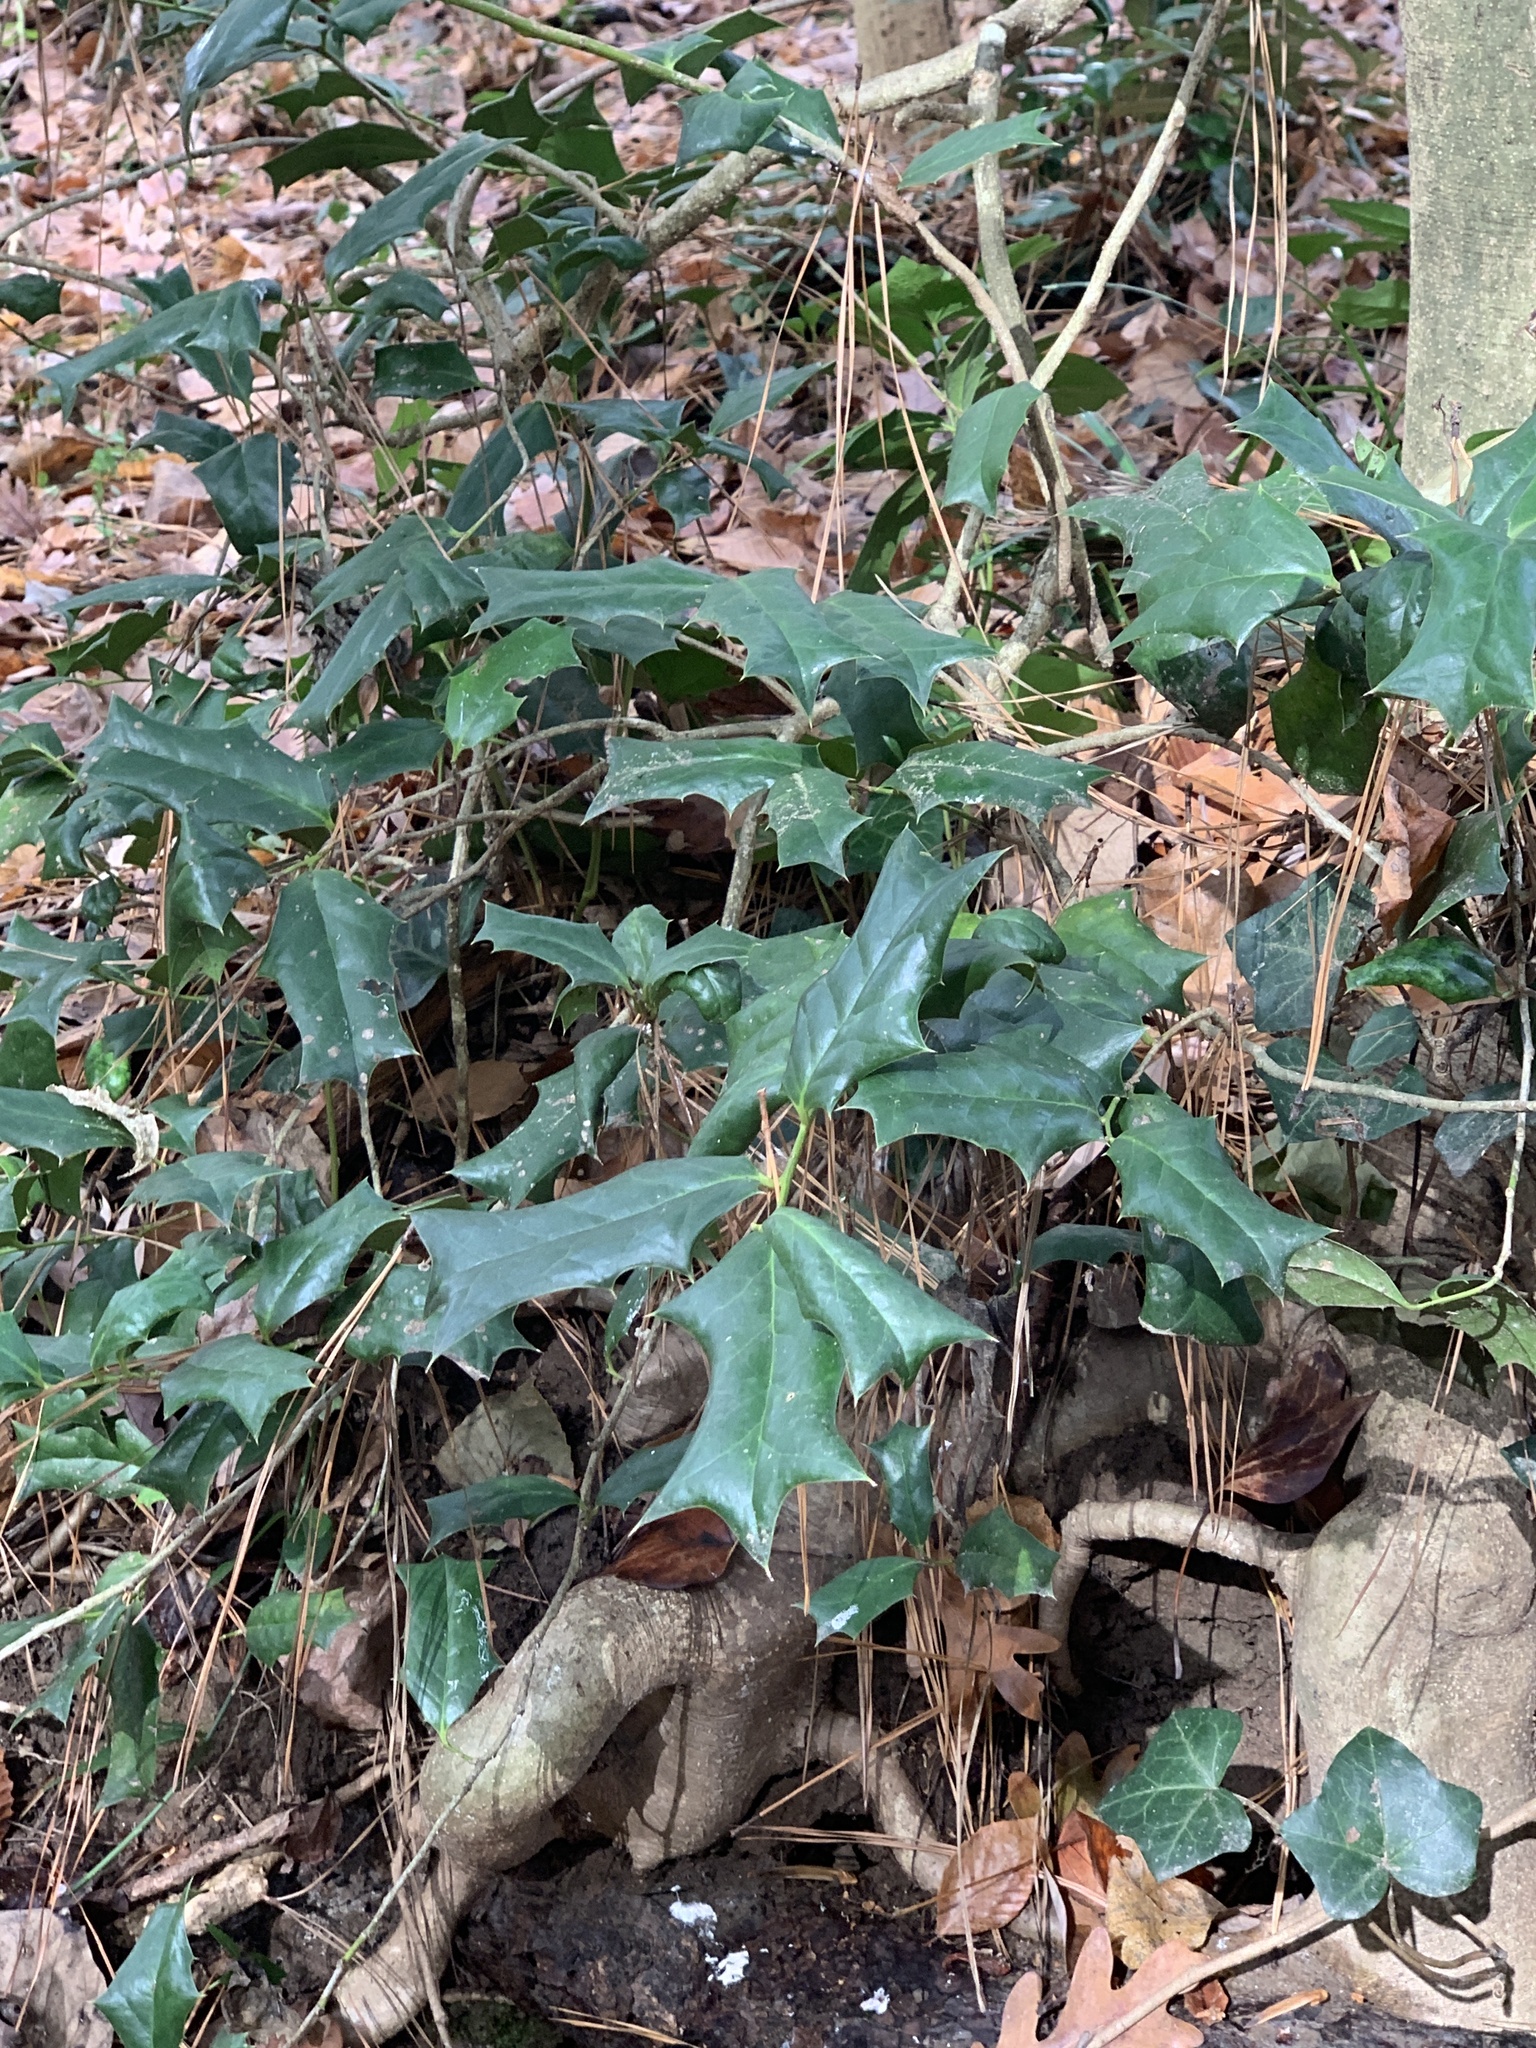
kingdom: Plantae
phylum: Tracheophyta
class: Magnoliopsida
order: Aquifoliales
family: Aquifoliaceae
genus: Ilex
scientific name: Ilex cornuta
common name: Chinese holly
